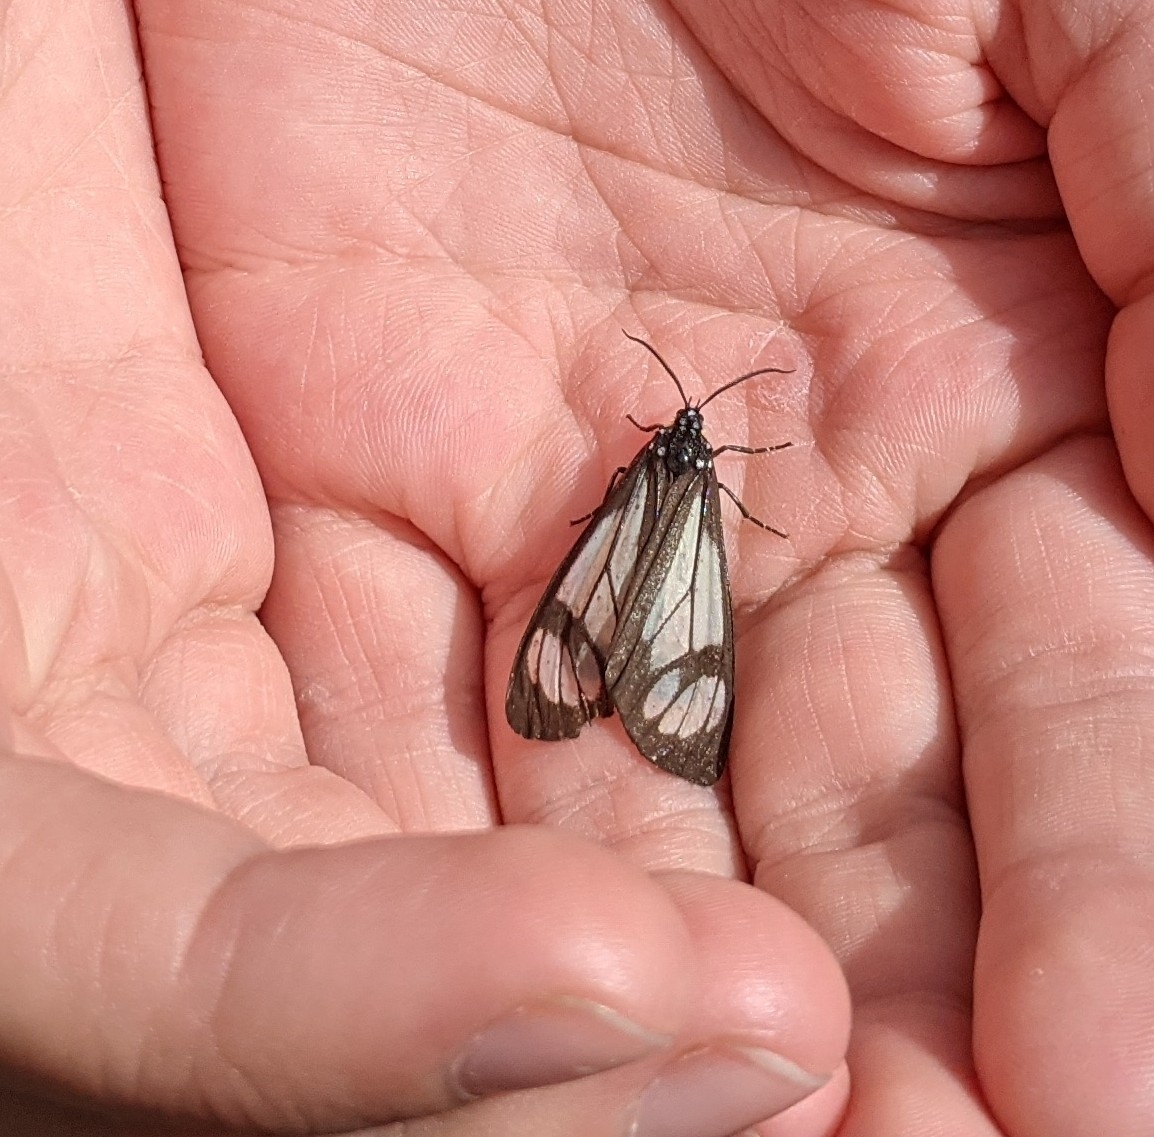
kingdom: Animalia
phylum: Arthropoda
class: Insecta
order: Lepidoptera
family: Erebidae
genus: Gnophaela
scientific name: Gnophaela vermiculata
